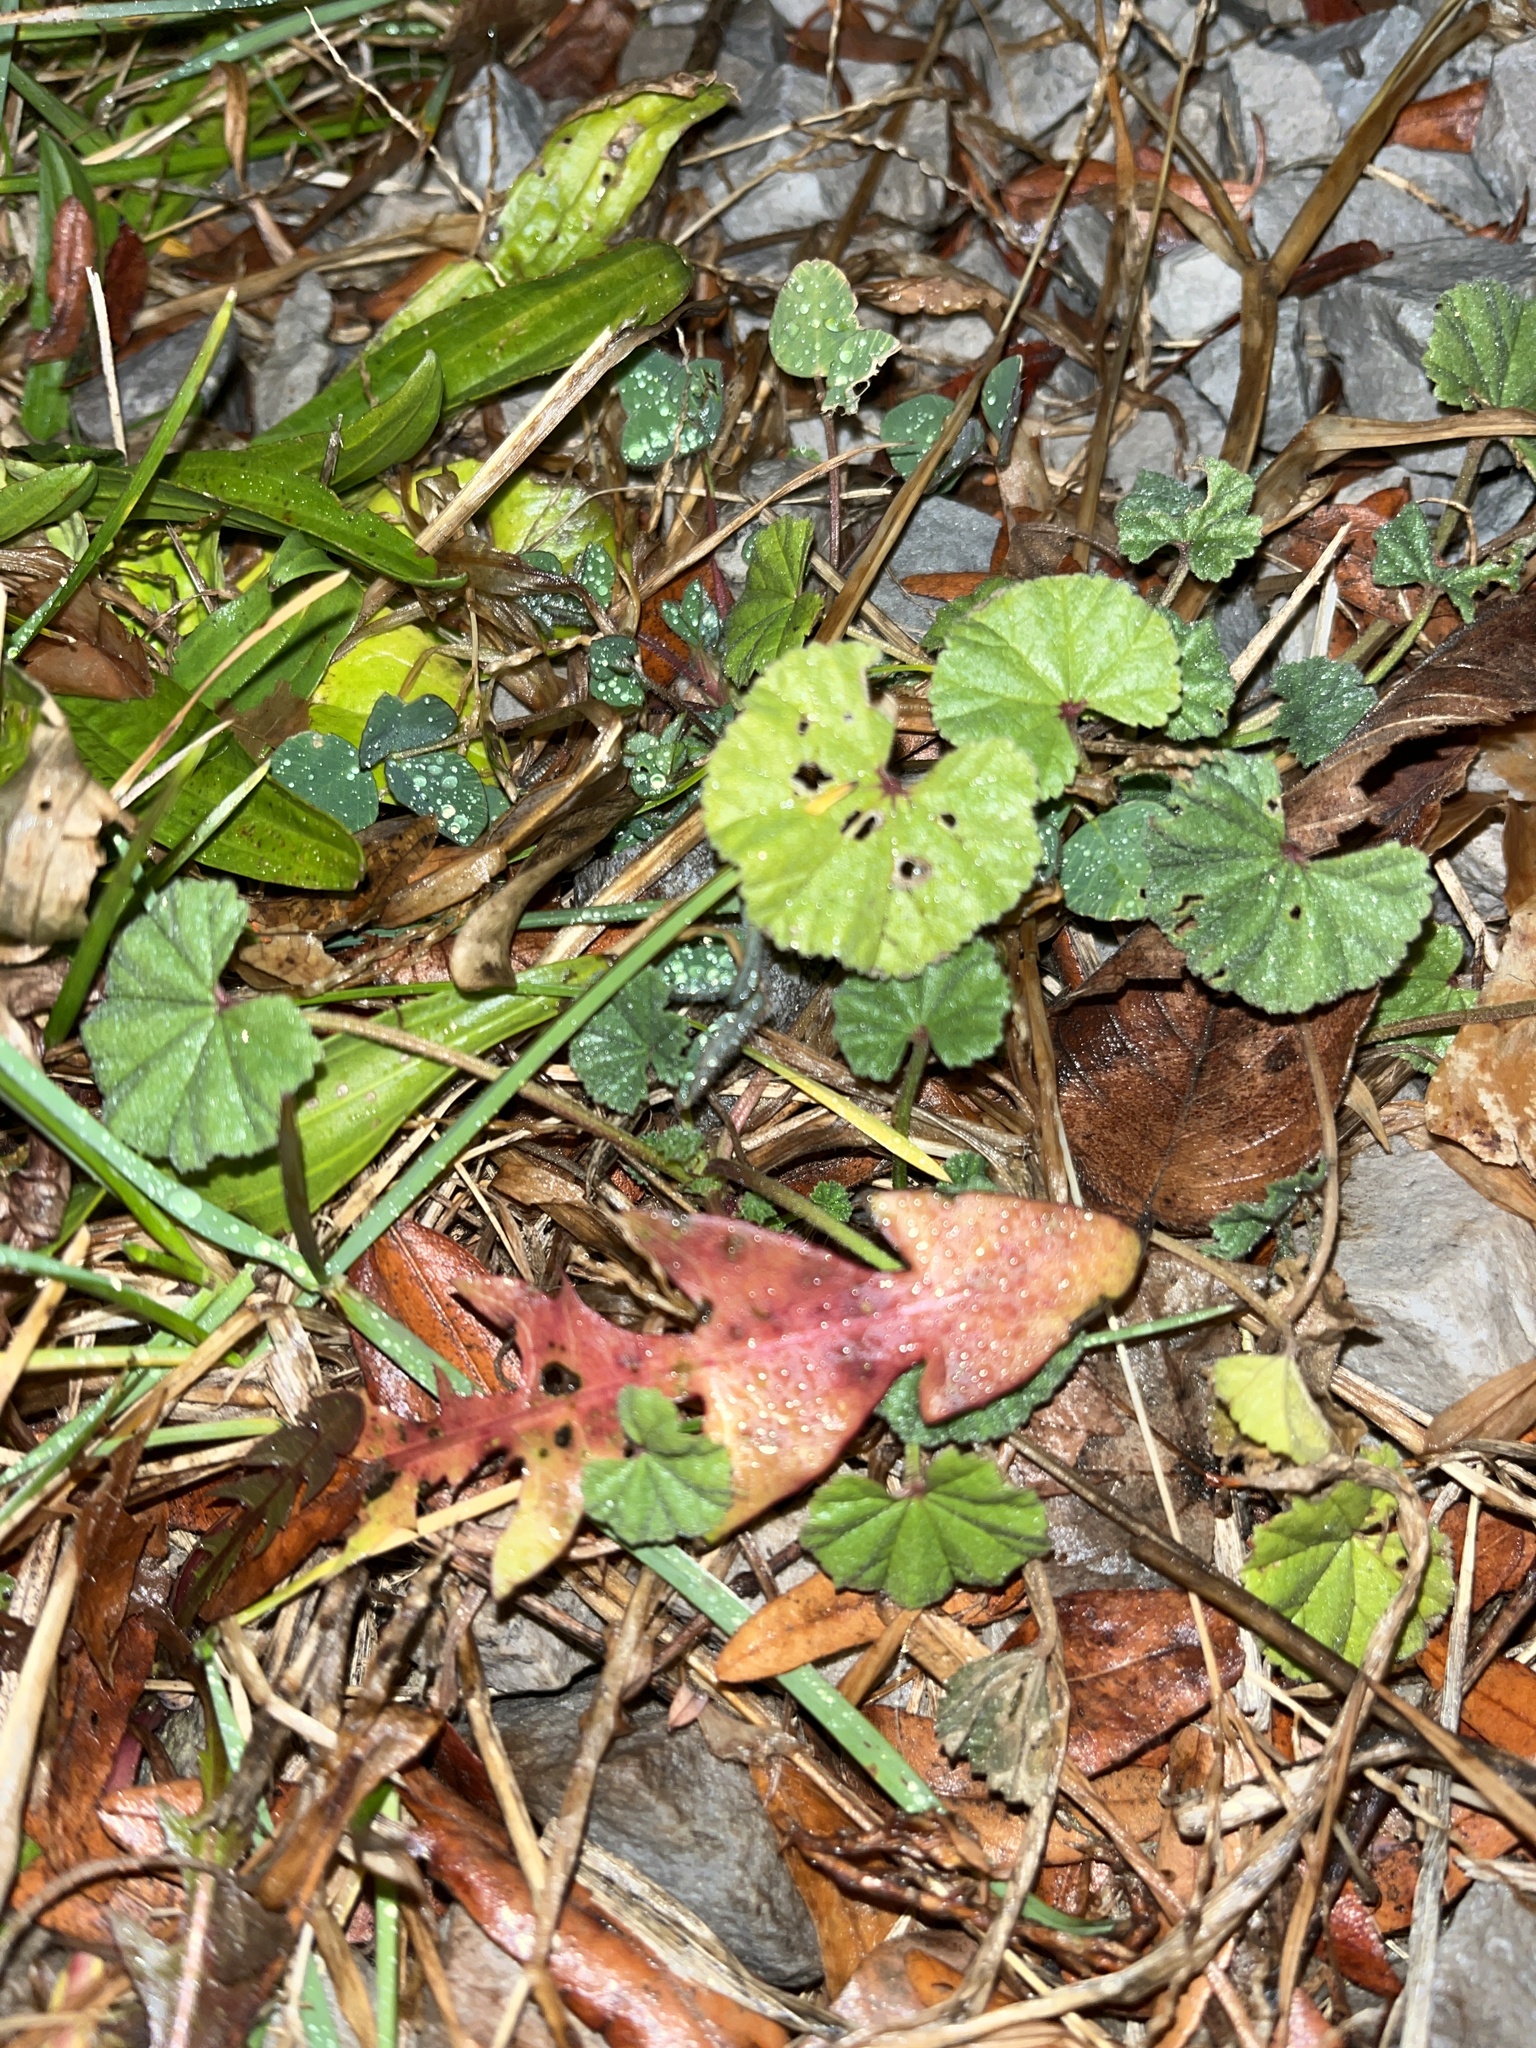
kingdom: Plantae
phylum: Tracheophyta
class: Magnoliopsida
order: Malvales
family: Malvaceae
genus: Malva
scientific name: Malva
